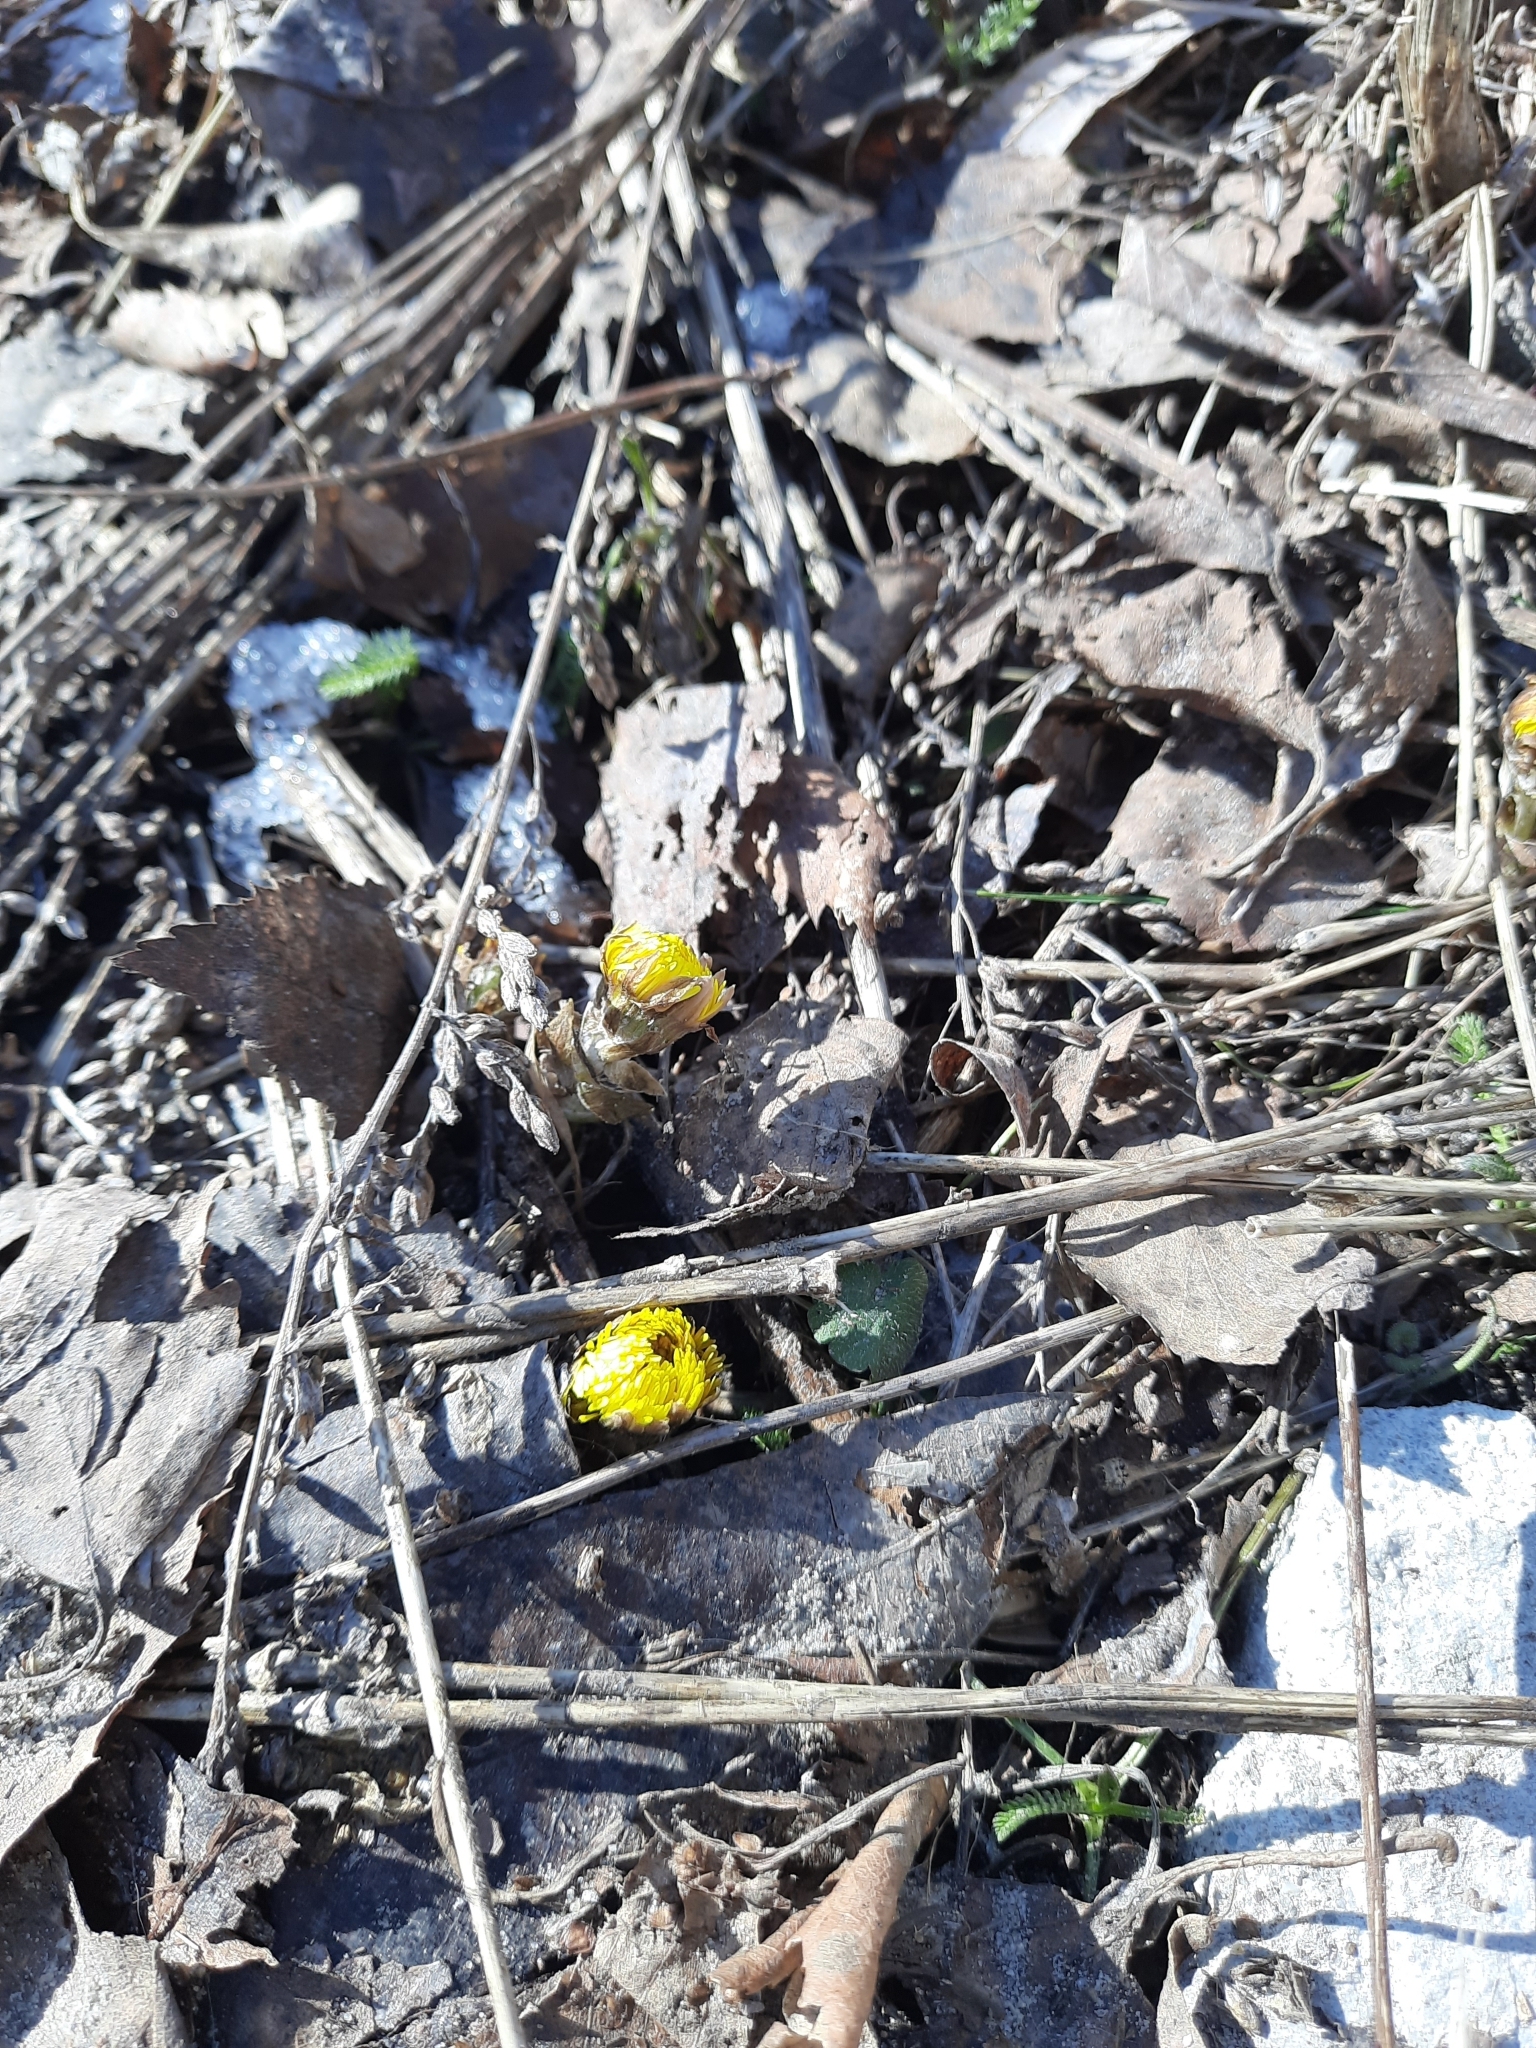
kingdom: Plantae
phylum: Tracheophyta
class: Magnoliopsida
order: Asterales
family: Asteraceae
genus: Tussilago
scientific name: Tussilago farfara
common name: Coltsfoot
